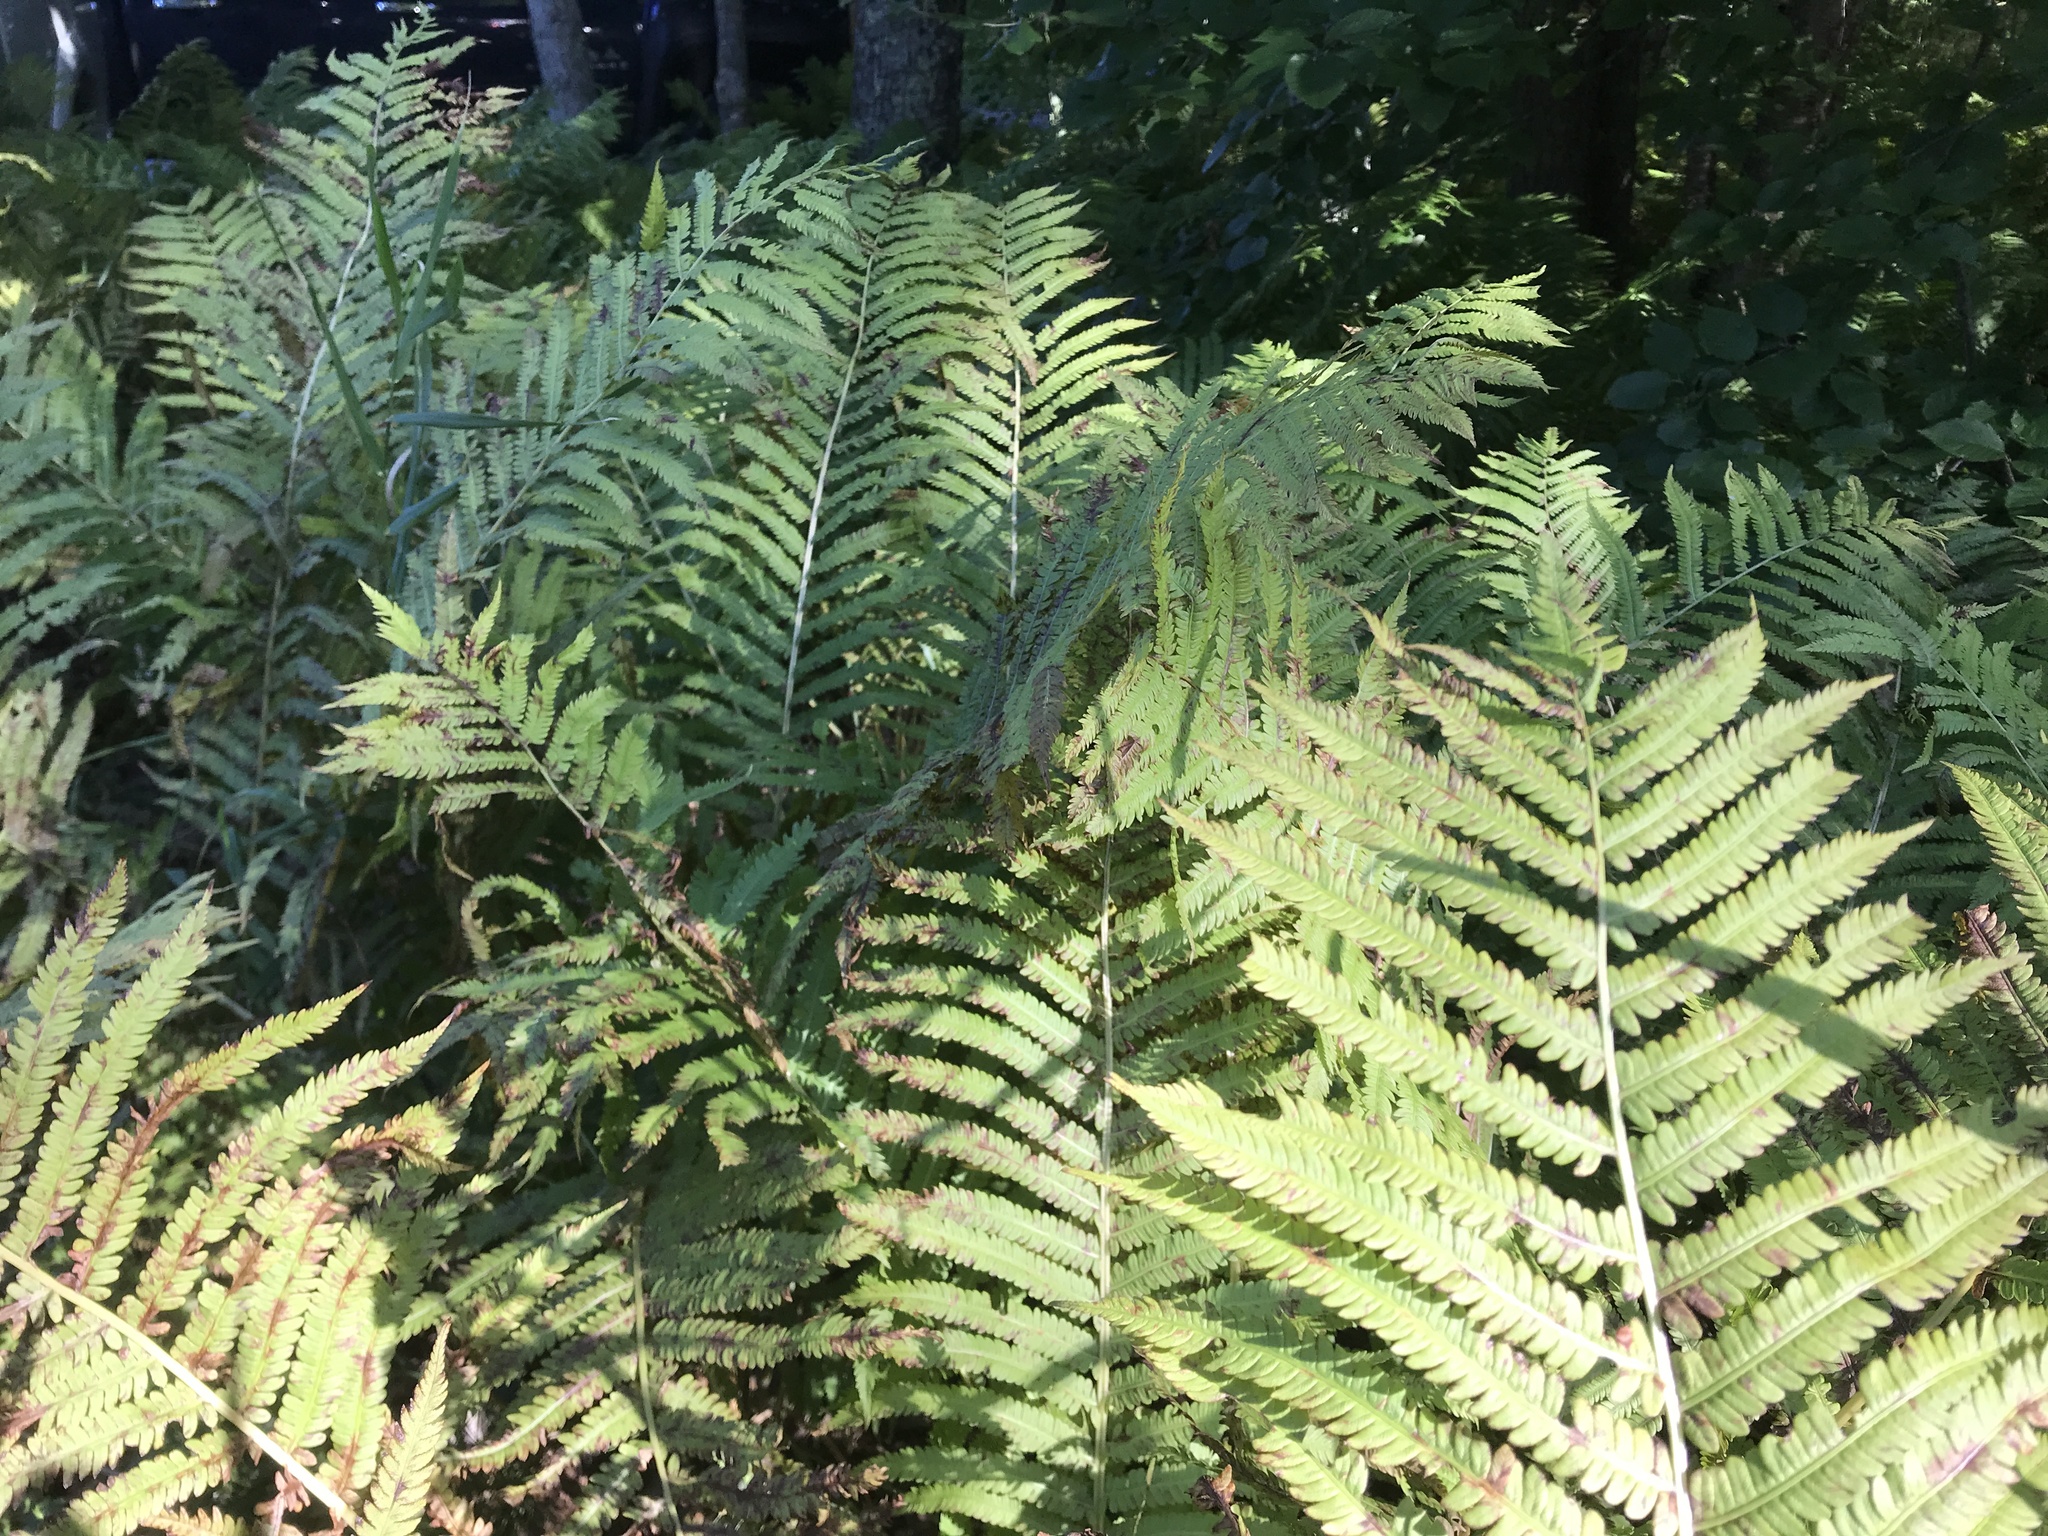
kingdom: Plantae
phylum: Tracheophyta
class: Polypodiopsida
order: Polypodiales
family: Onocleaceae
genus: Matteuccia
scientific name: Matteuccia struthiopteris
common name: Ostrich fern
